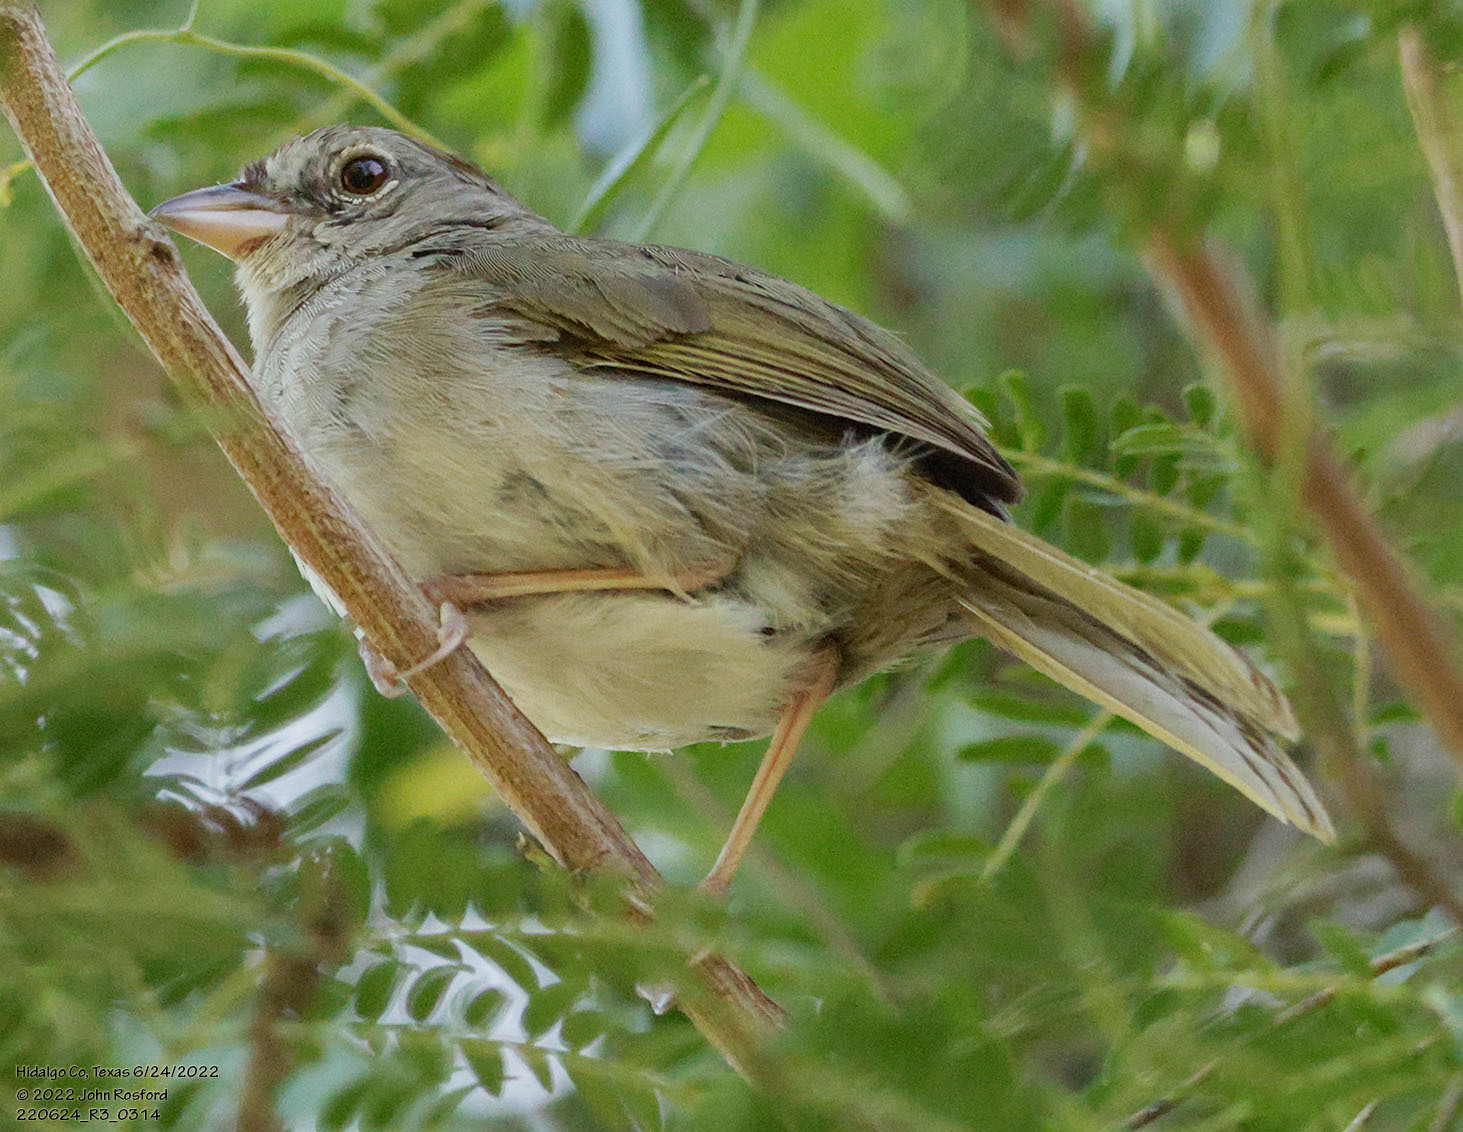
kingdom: Animalia
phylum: Chordata
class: Aves
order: Passeriformes
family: Passerellidae
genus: Arremonops
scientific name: Arremonops rufivirgatus
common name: Olive sparrow
